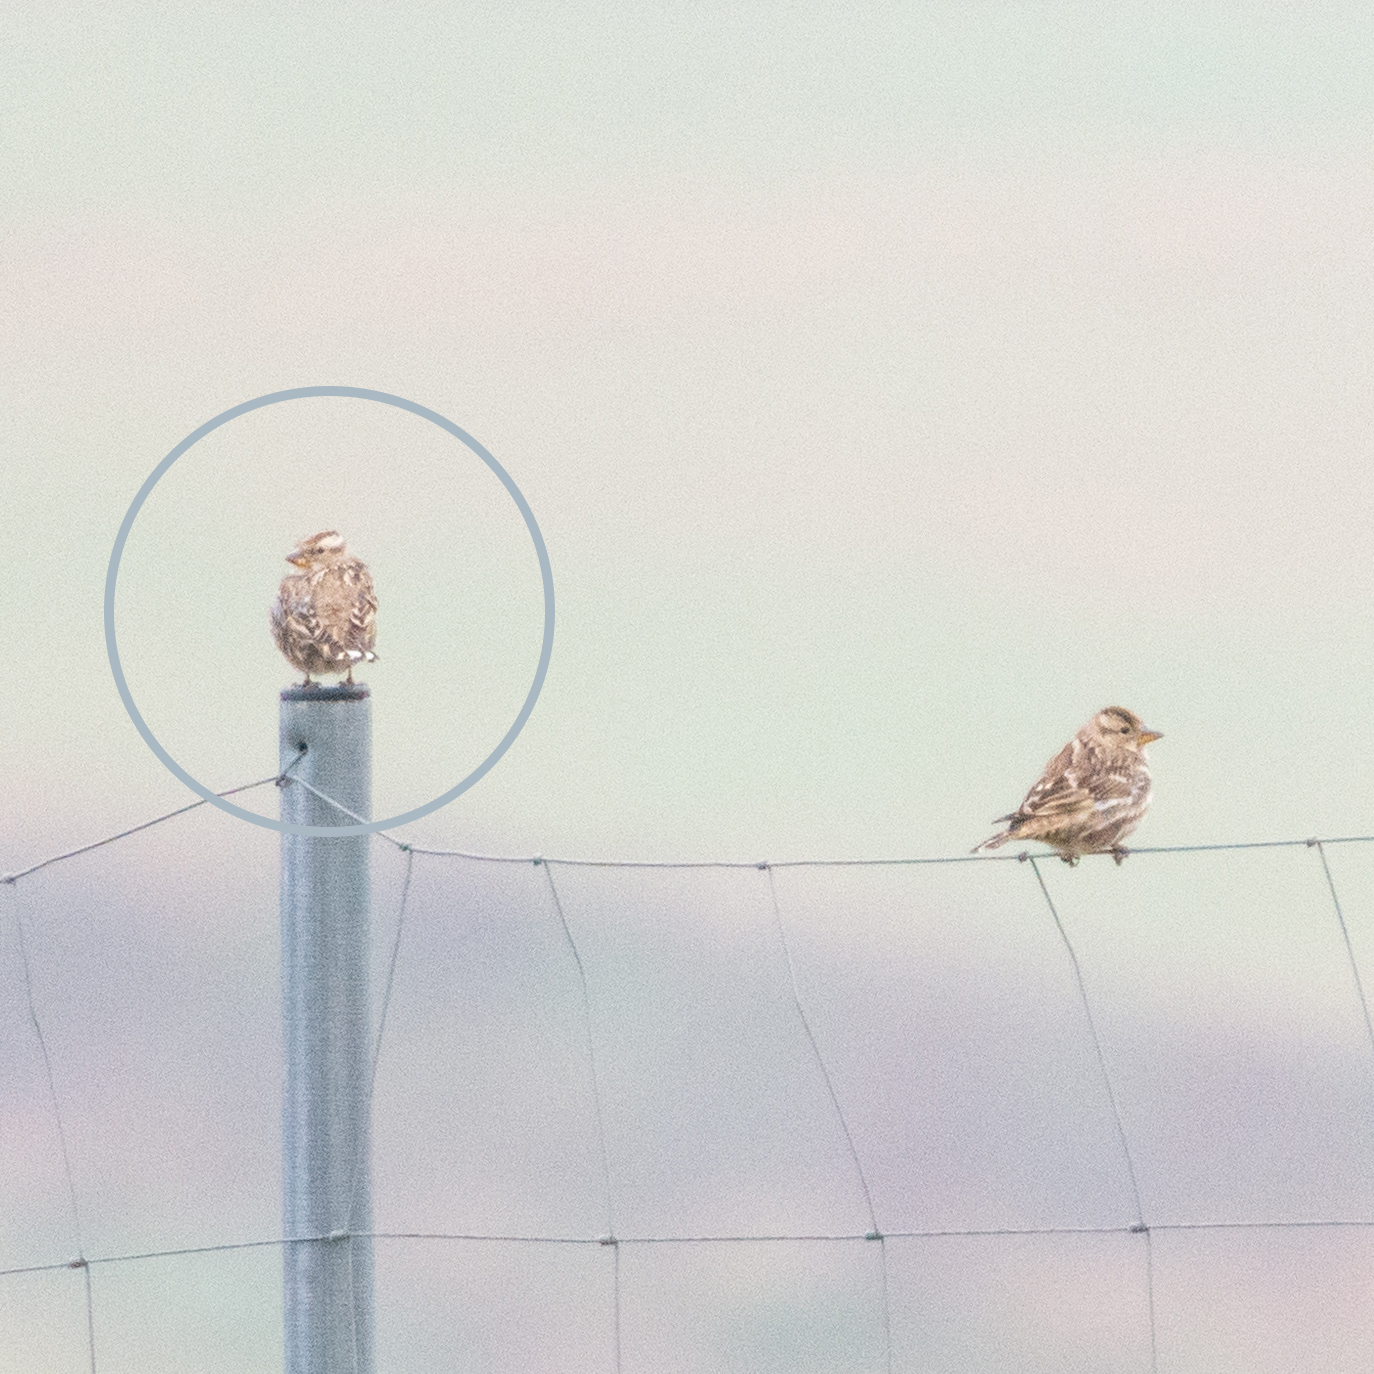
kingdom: Animalia
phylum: Chordata
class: Aves
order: Passeriformes
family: Passeridae
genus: Petronia
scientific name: Petronia petronia
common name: Rock sparrow
